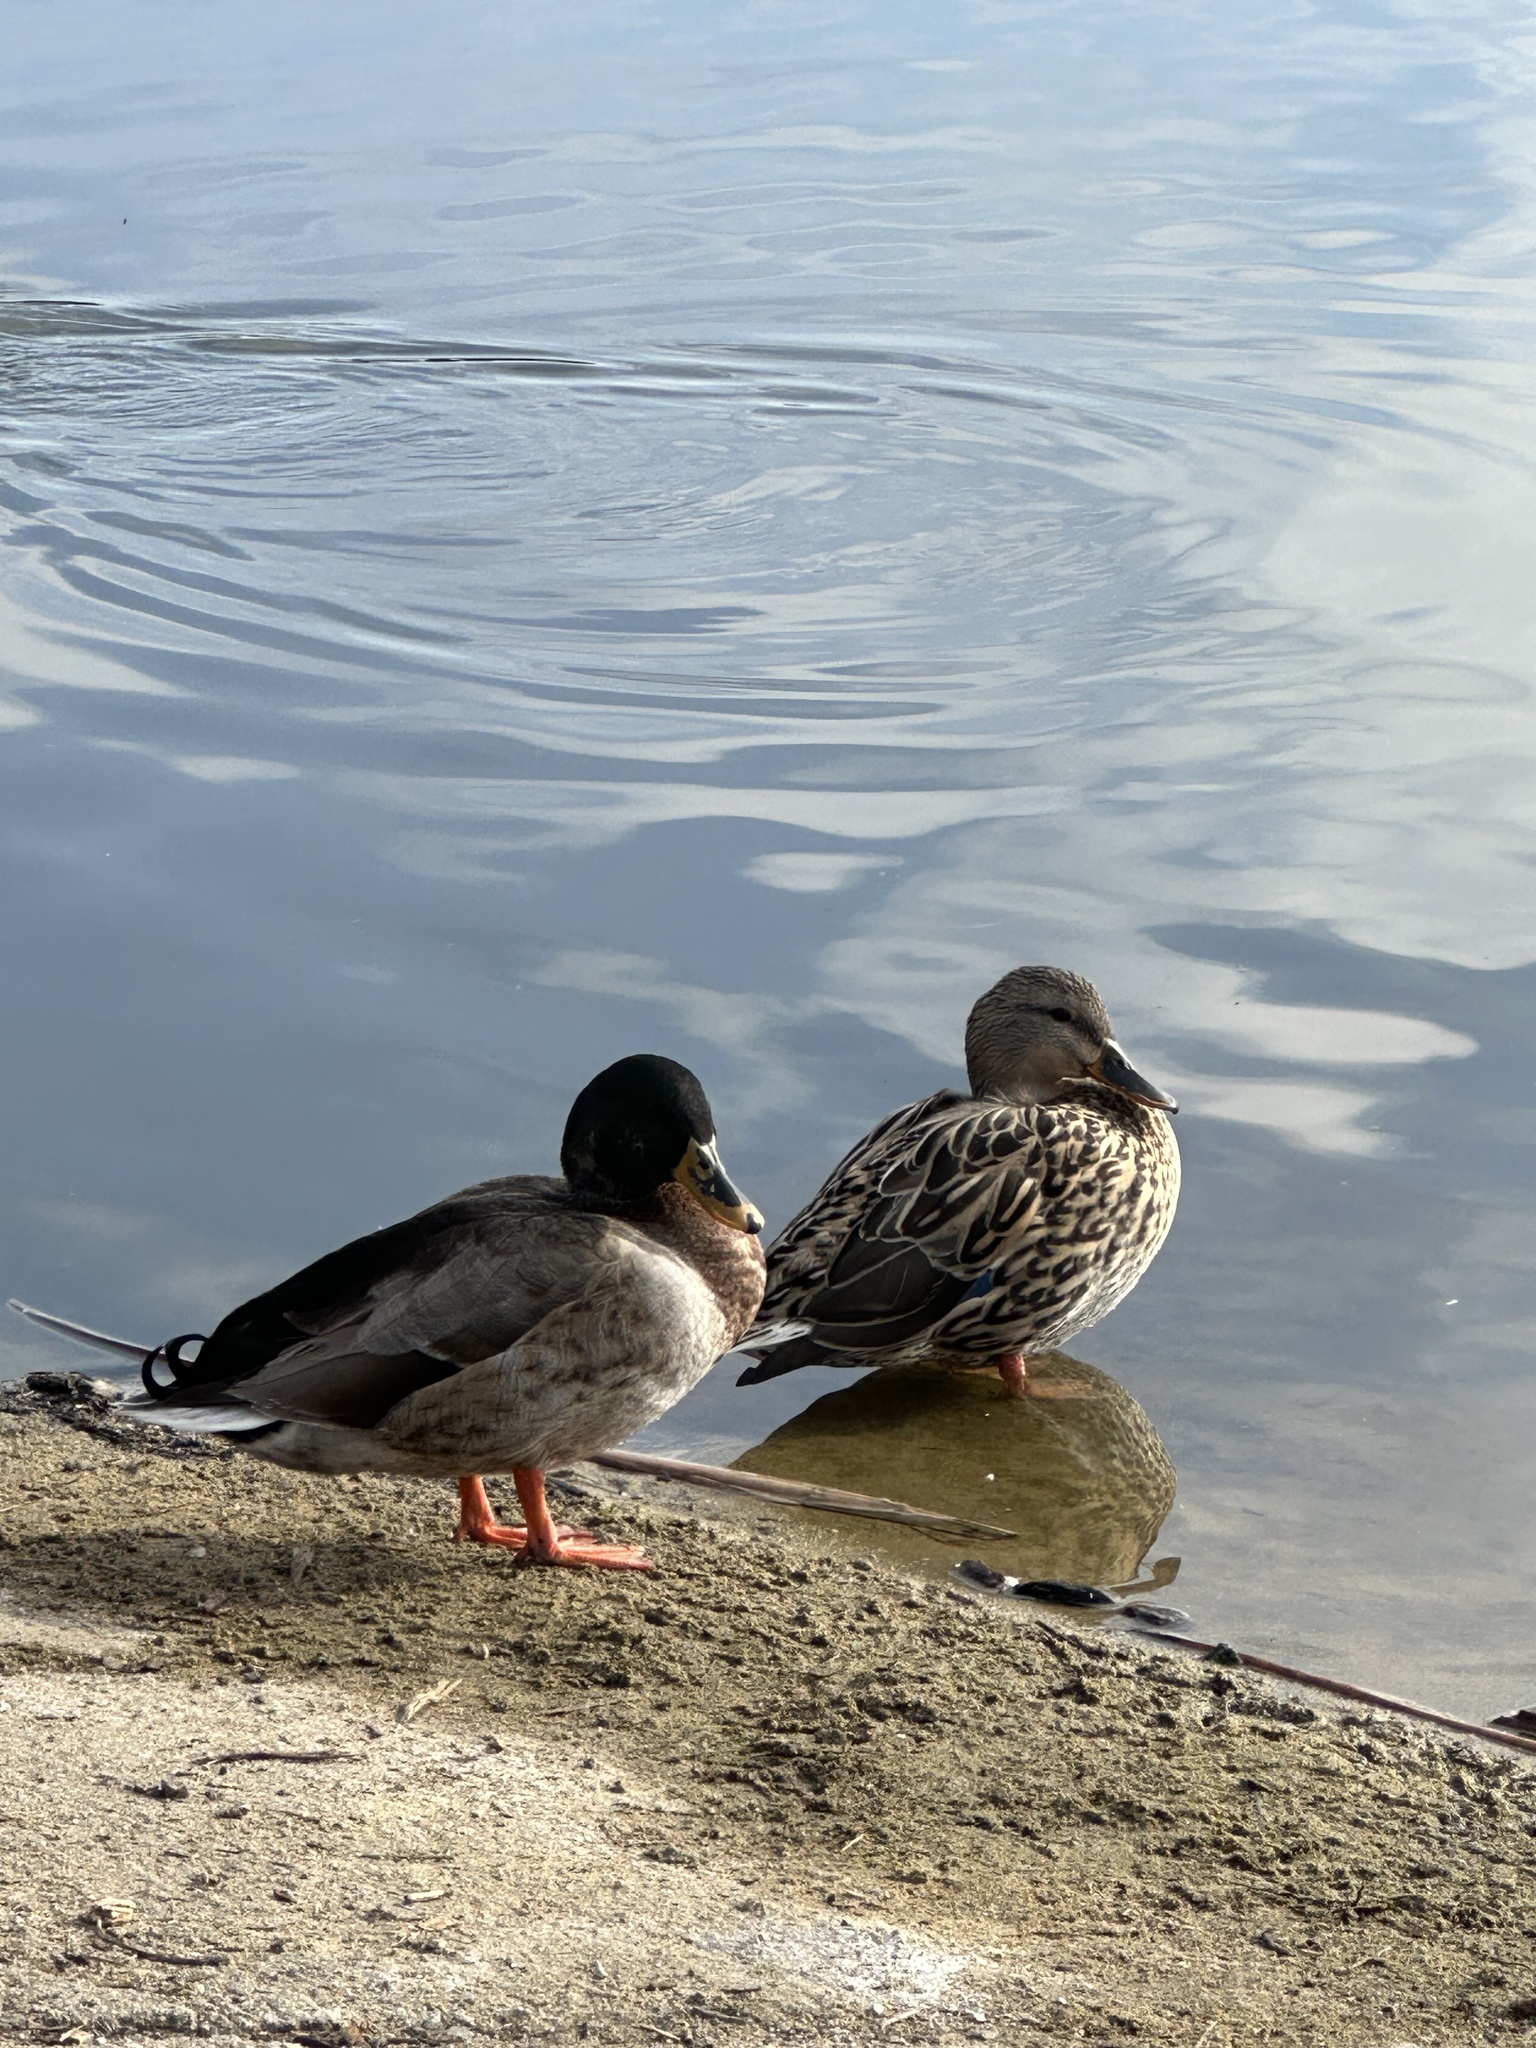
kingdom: Animalia
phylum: Chordata
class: Aves
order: Anseriformes
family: Anatidae
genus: Anas
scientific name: Anas platyrhynchos
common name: Mallard
